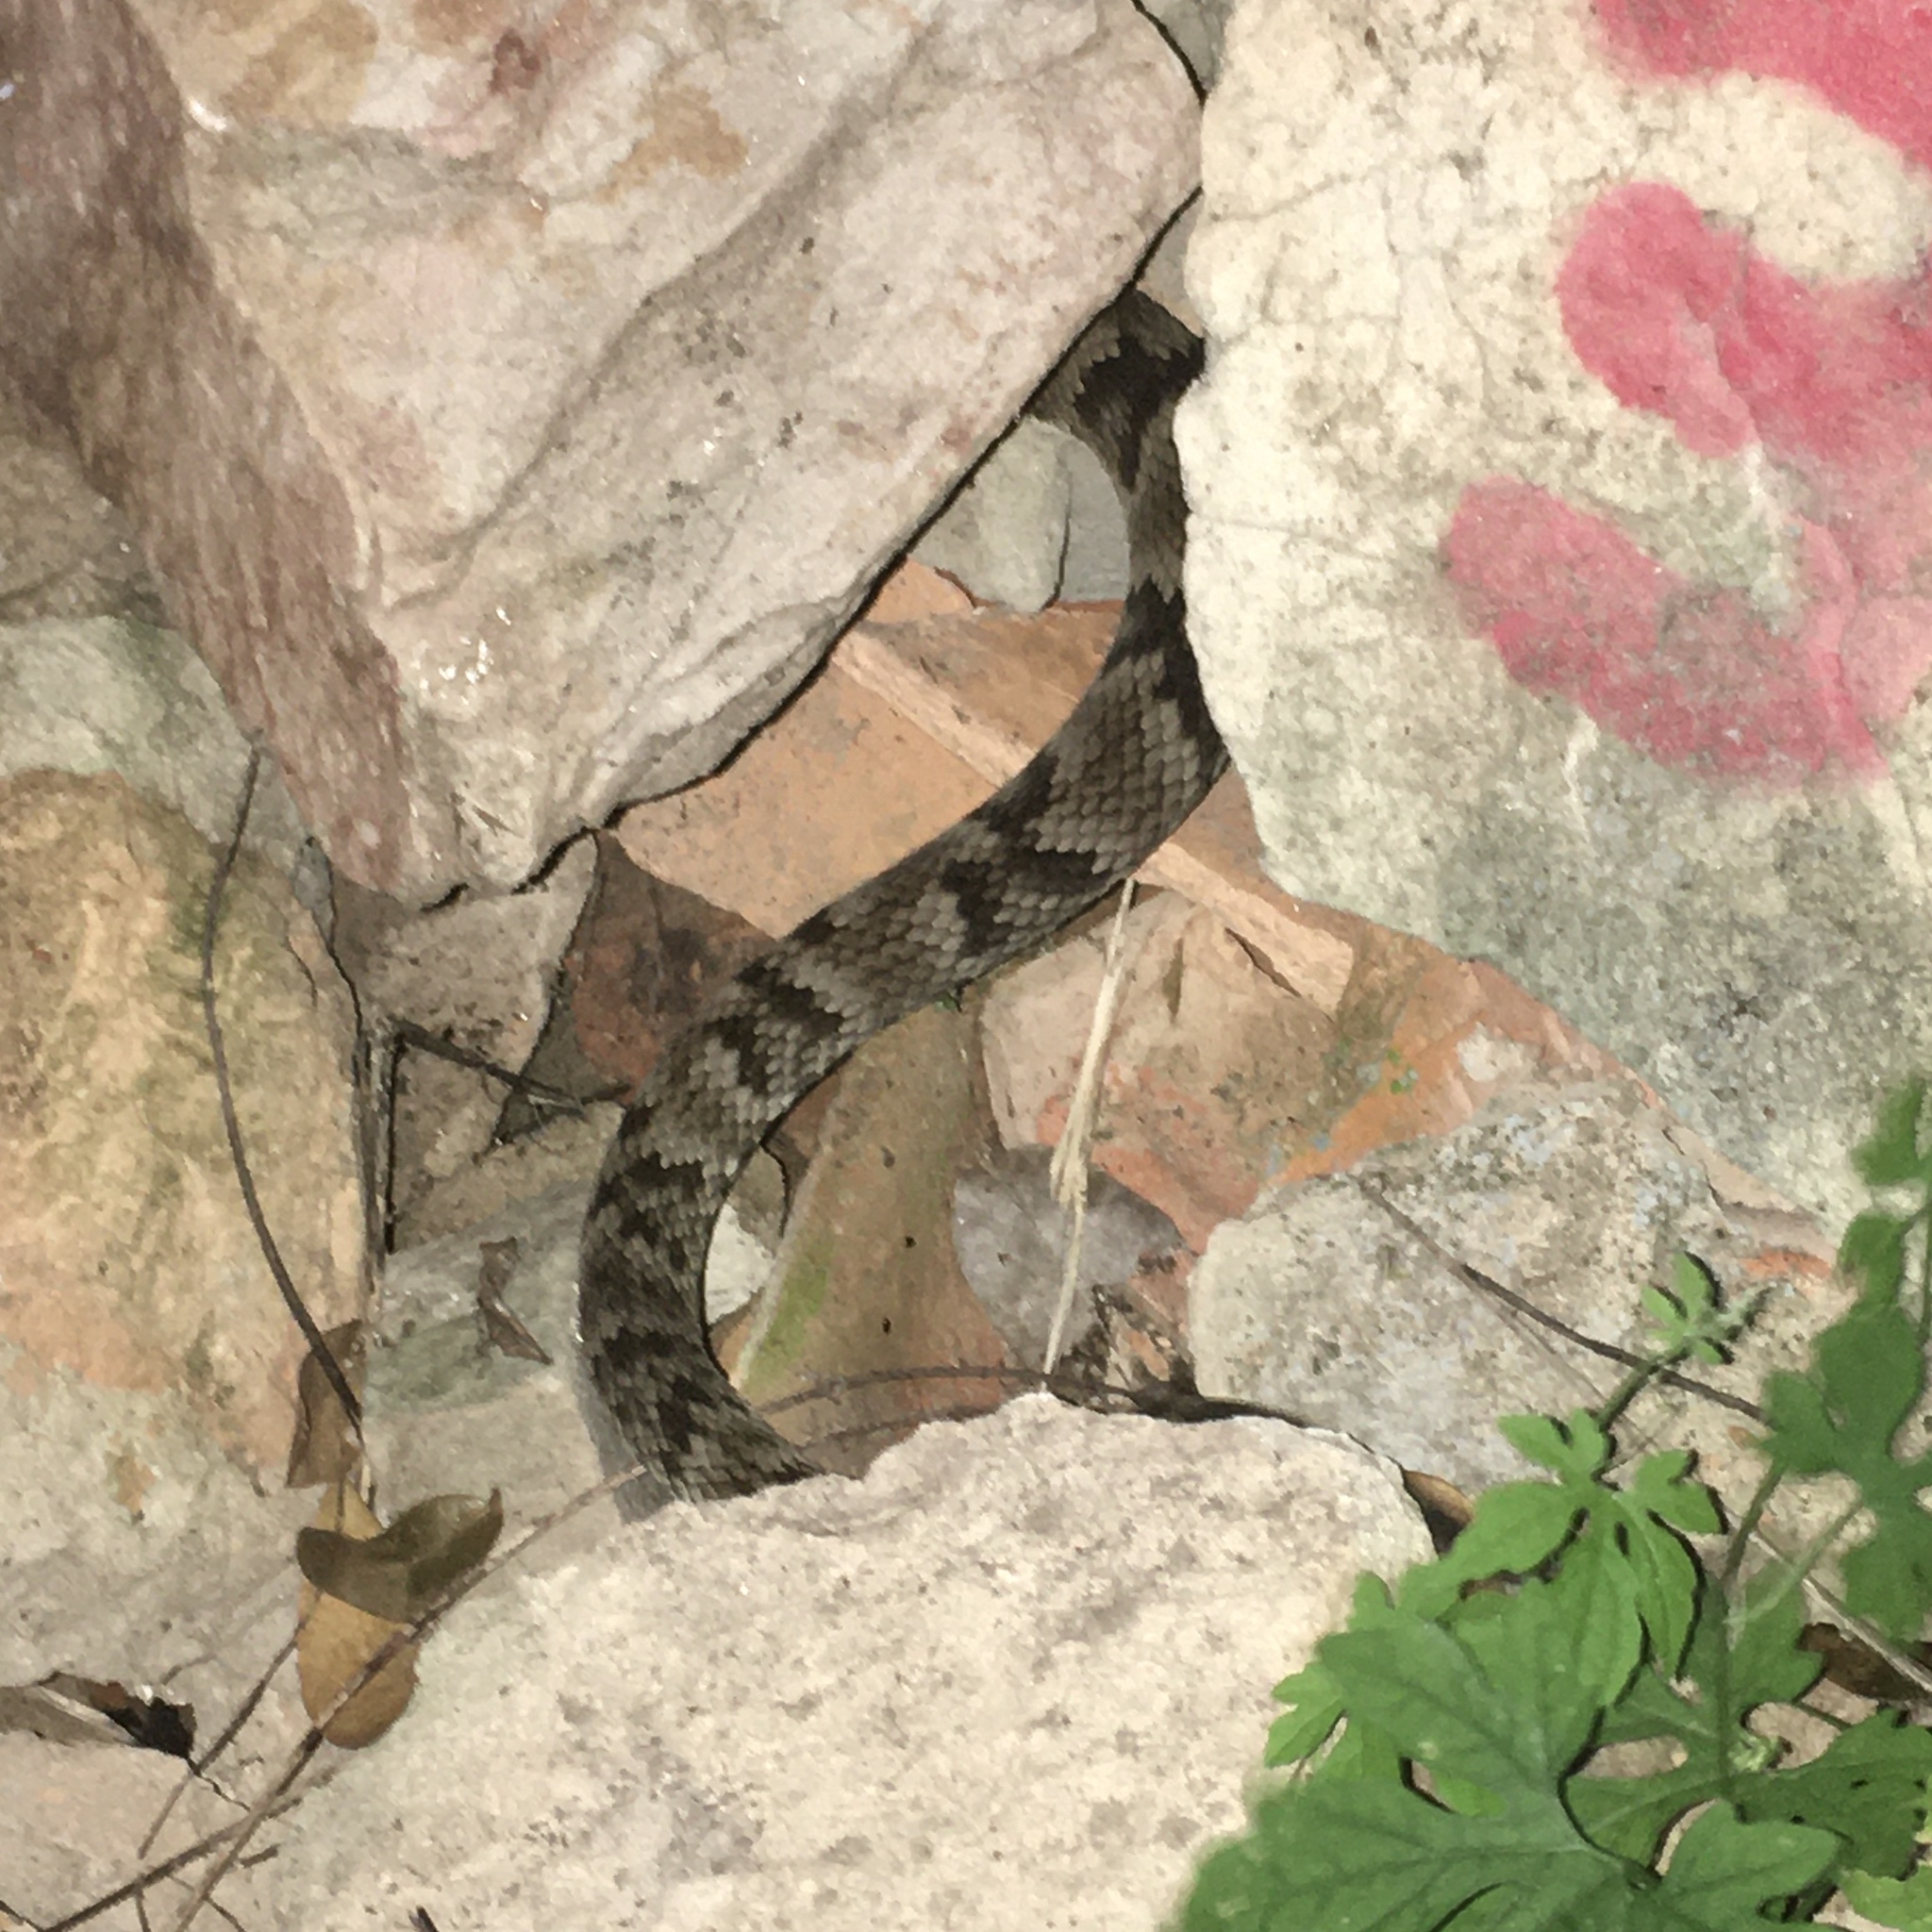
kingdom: Animalia
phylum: Chordata
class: Squamata
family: Viperidae
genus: Bothrops
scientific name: Bothrops jararaca
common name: Jararaca
